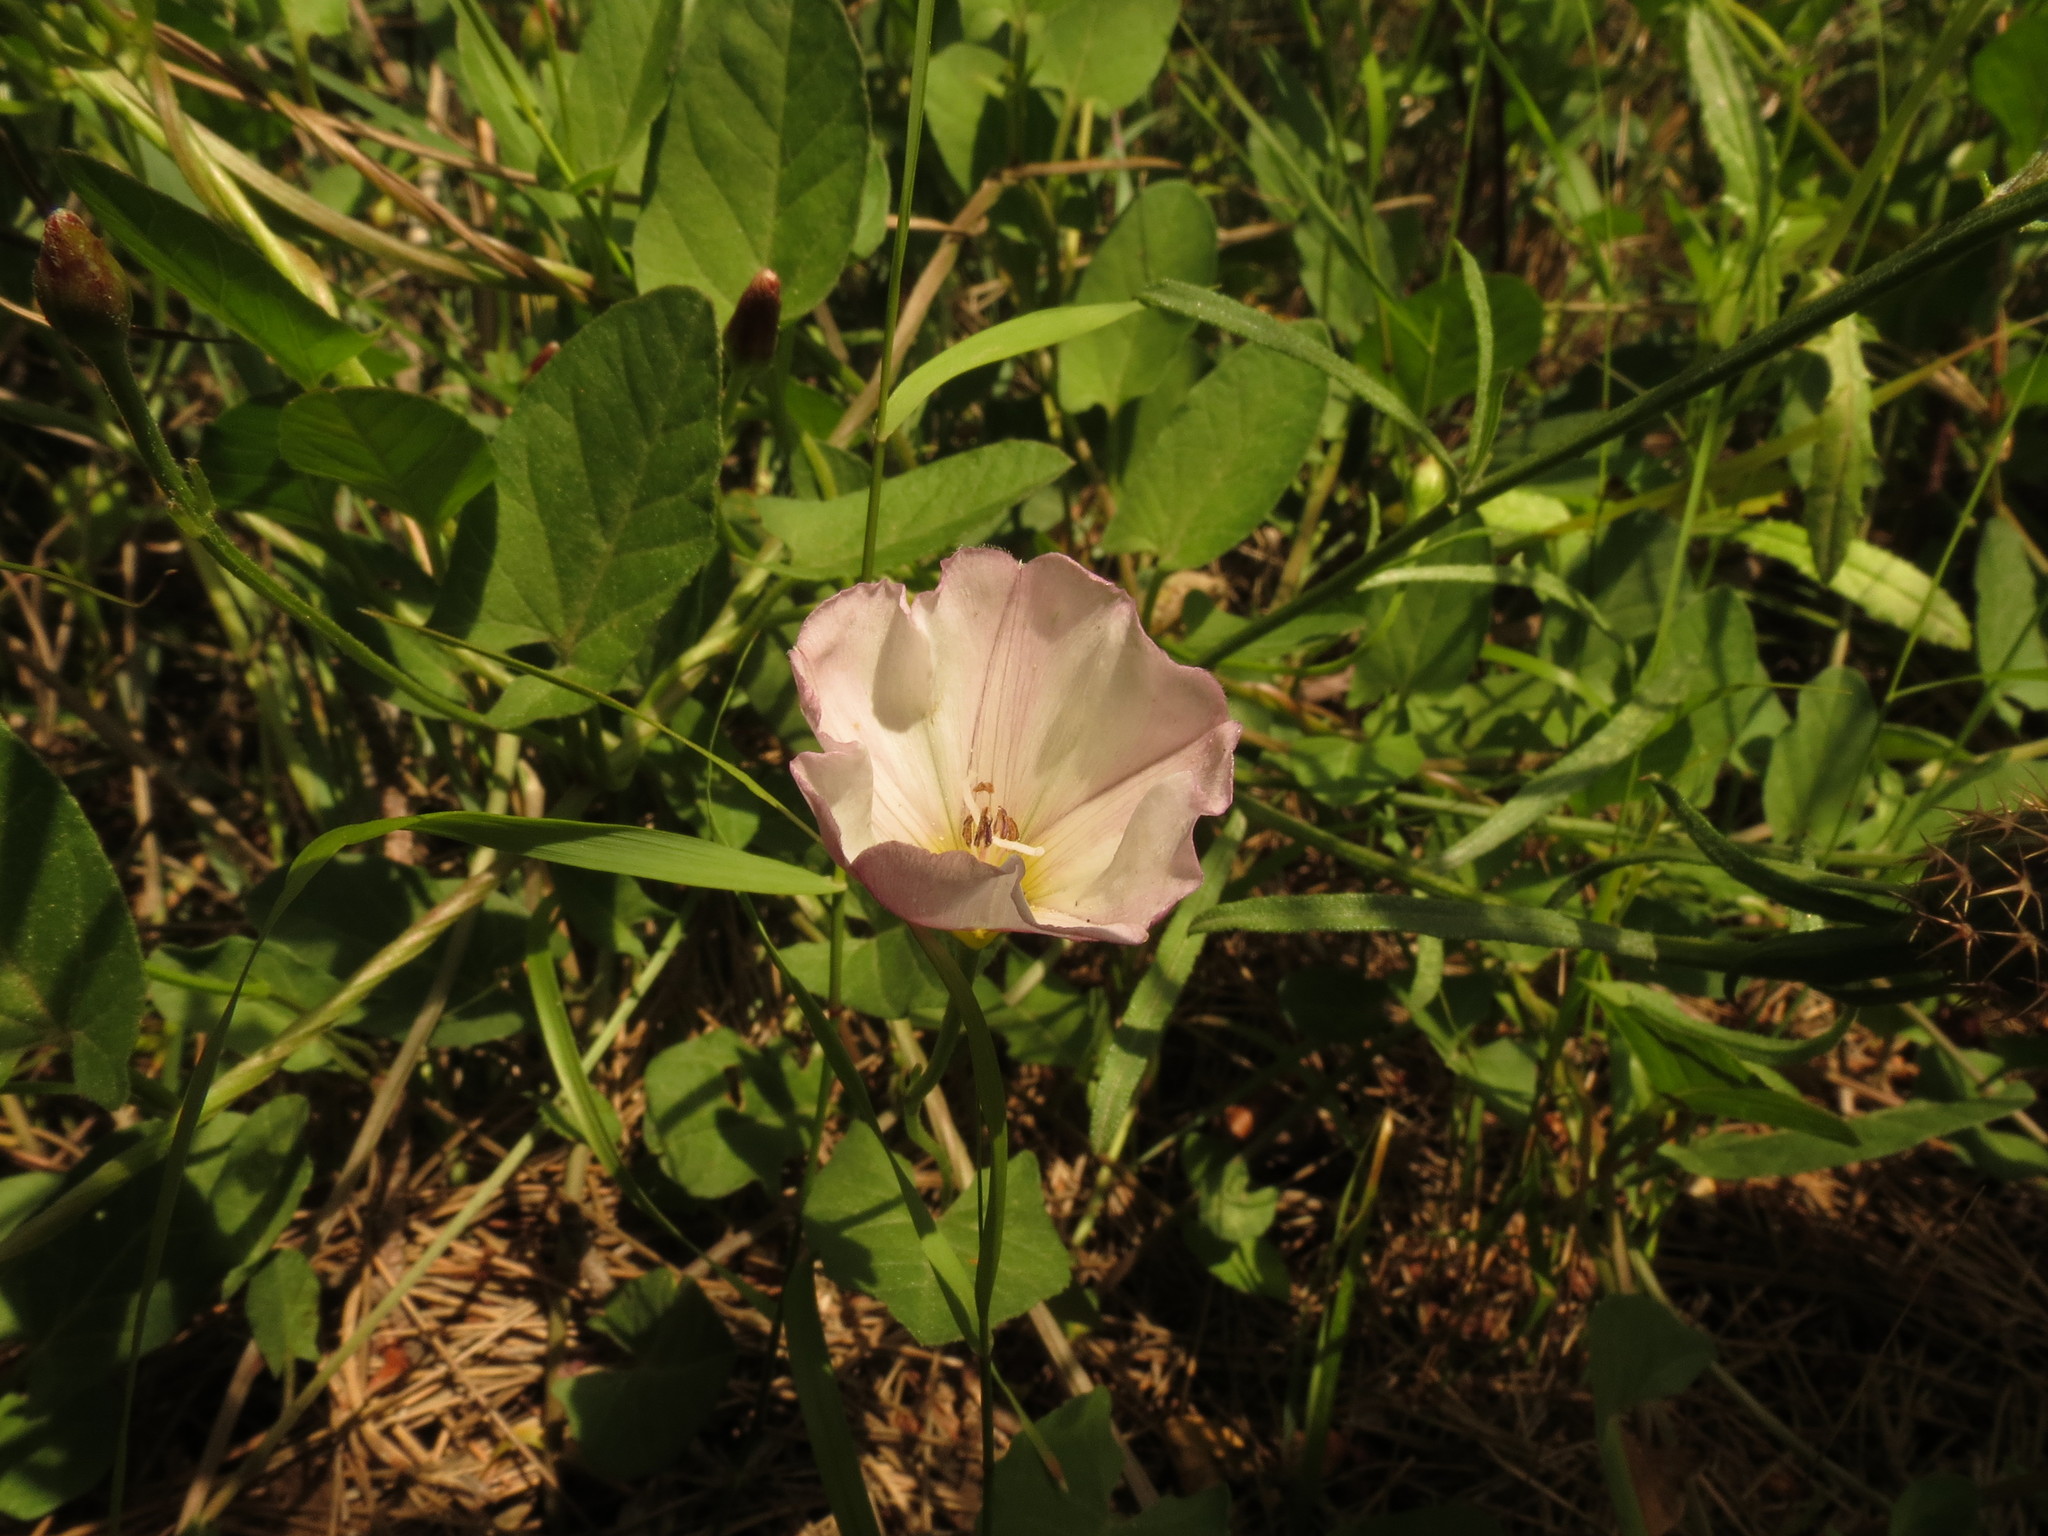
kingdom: Plantae
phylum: Tracheophyta
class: Magnoliopsida
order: Solanales
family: Convolvulaceae
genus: Convolvulus
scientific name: Convolvulus arvensis
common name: Field bindweed
